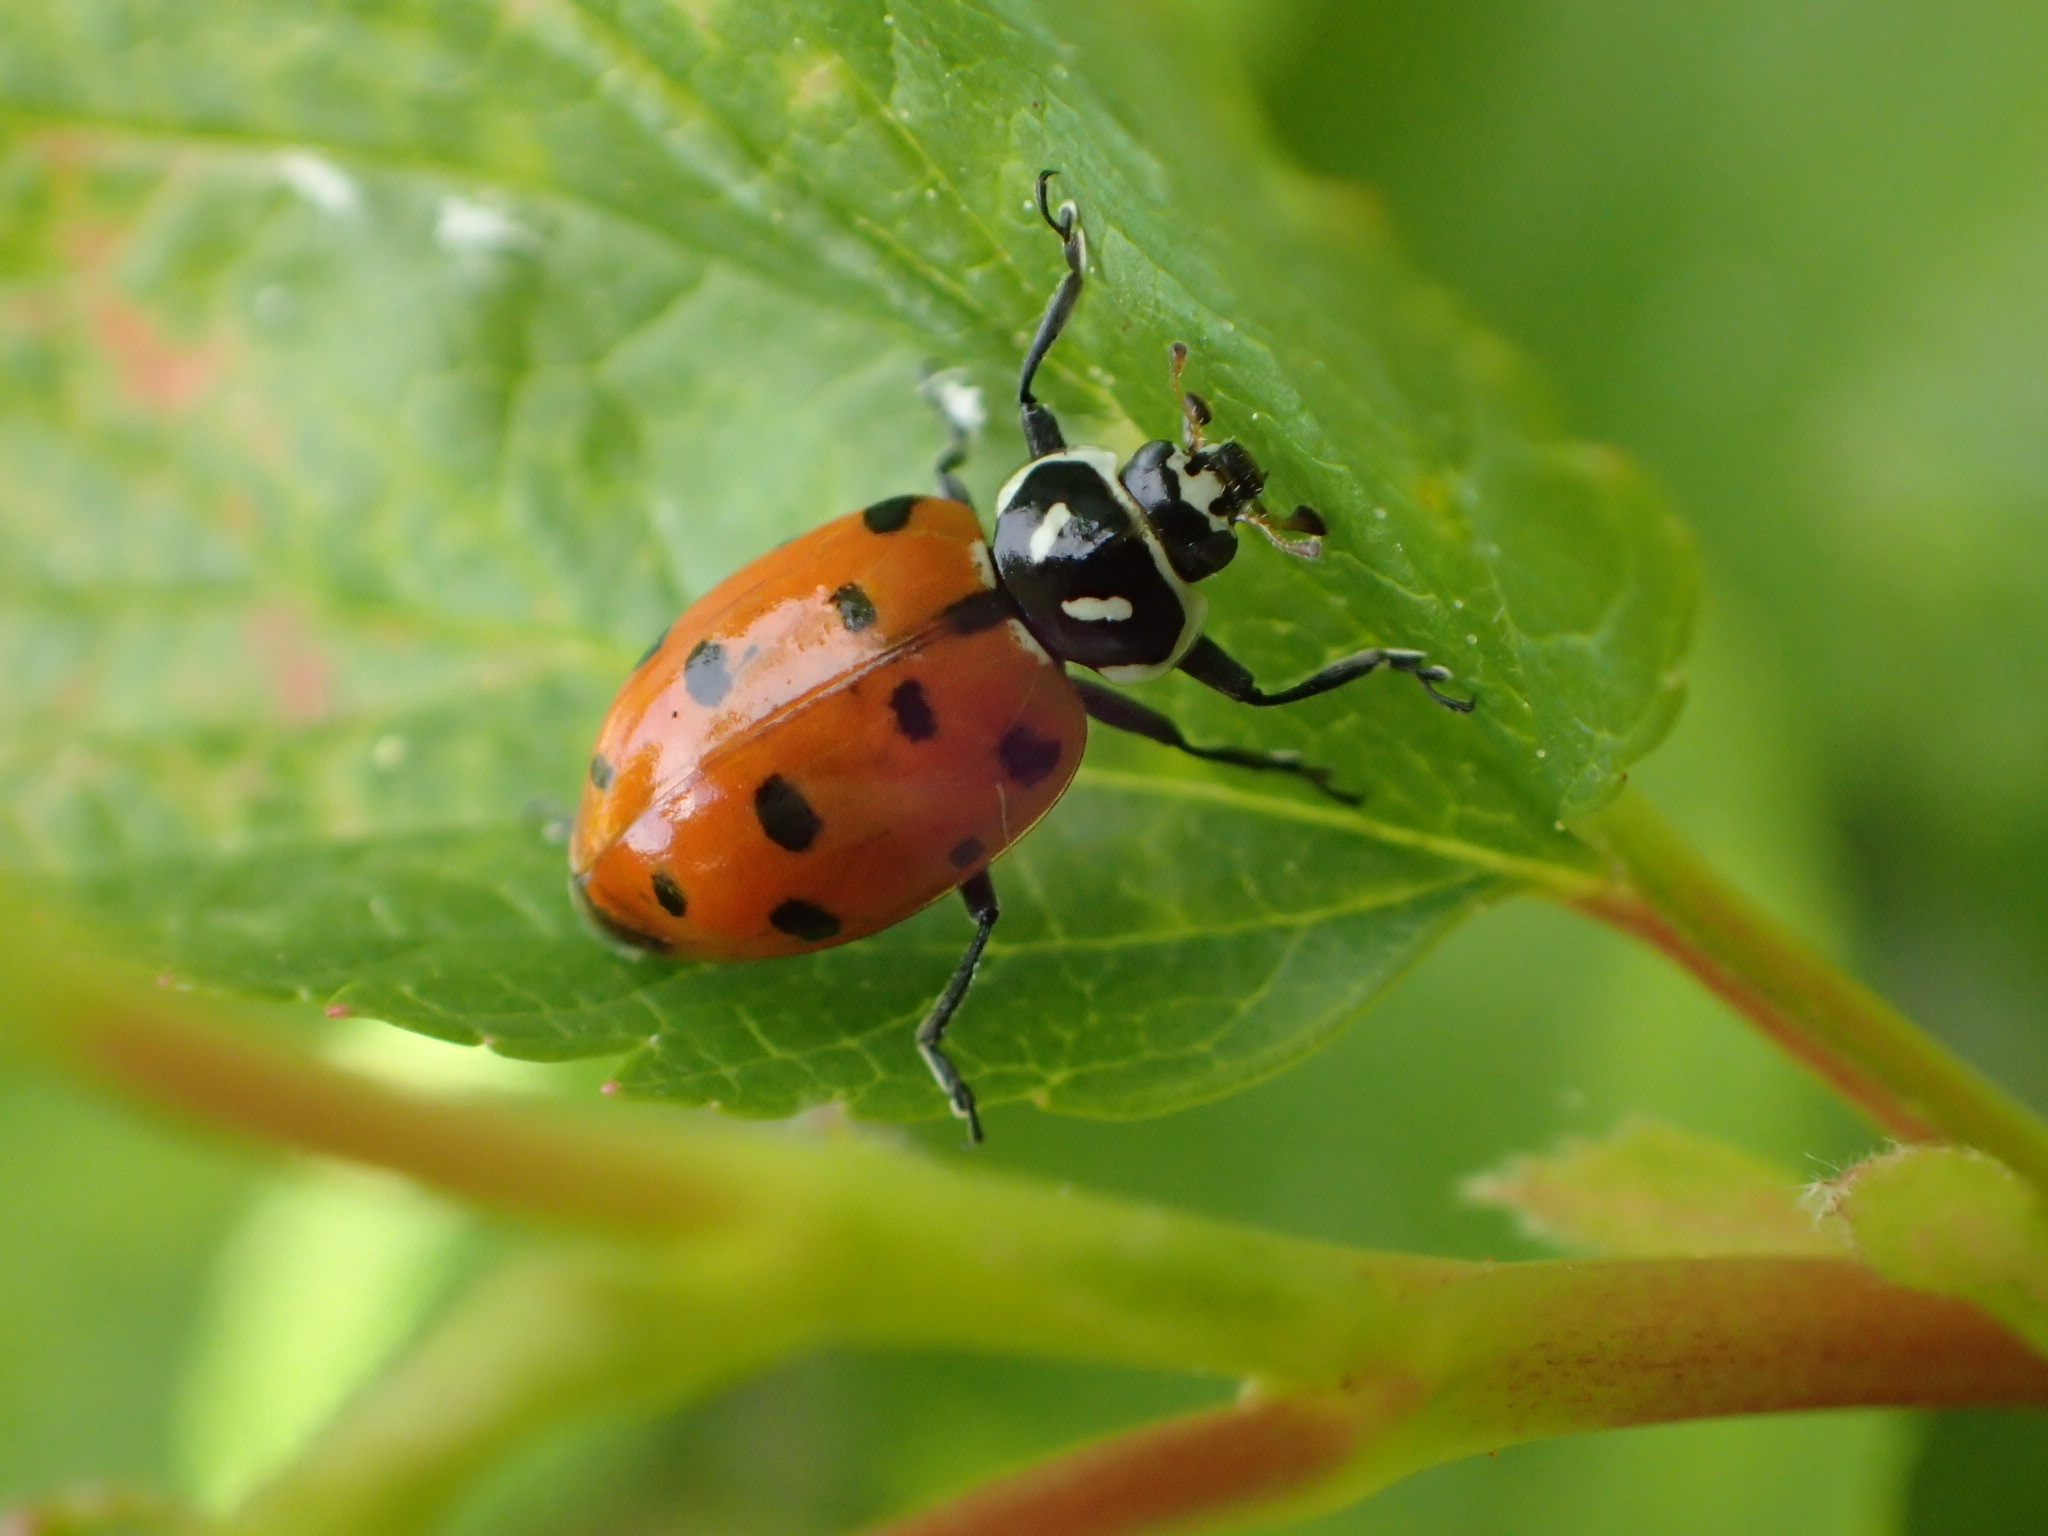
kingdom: Animalia
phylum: Arthropoda
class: Insecta
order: Coleoptera
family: Coccinellidae
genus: Hippodamia
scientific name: Hippodamia convergens
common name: Convergent lady beetle
